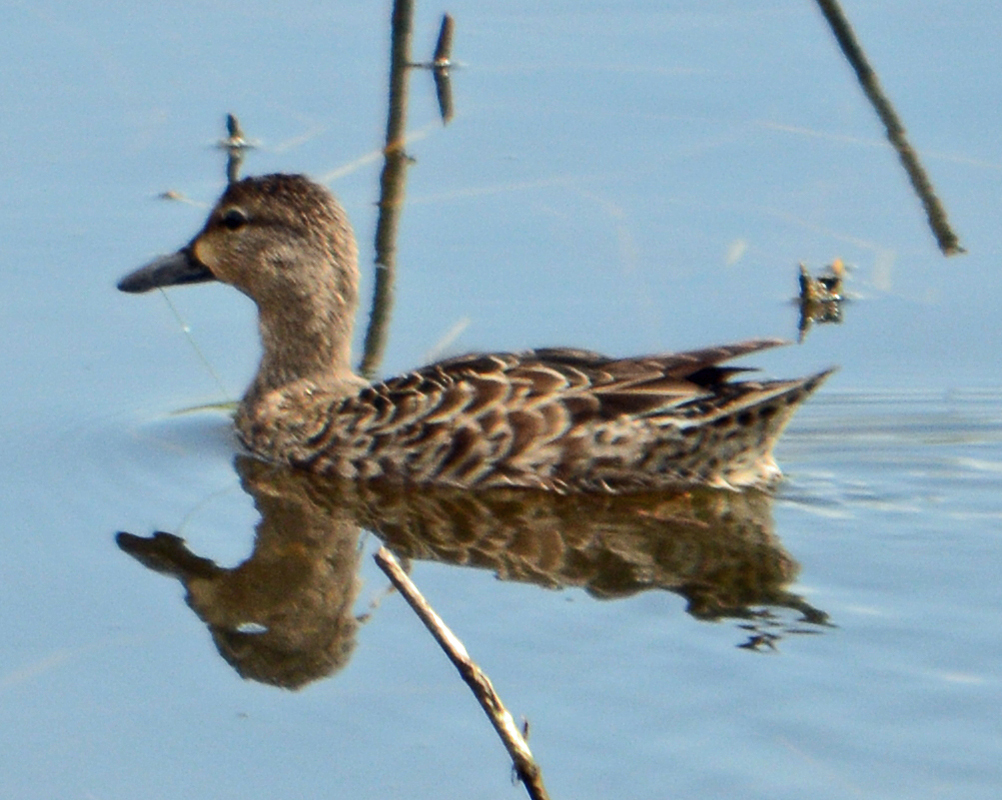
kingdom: Animalia
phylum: Chordata
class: Aves
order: Anseriformes
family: Anatidae
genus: Spatula
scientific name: Spatula discors
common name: Blue-winged teal
